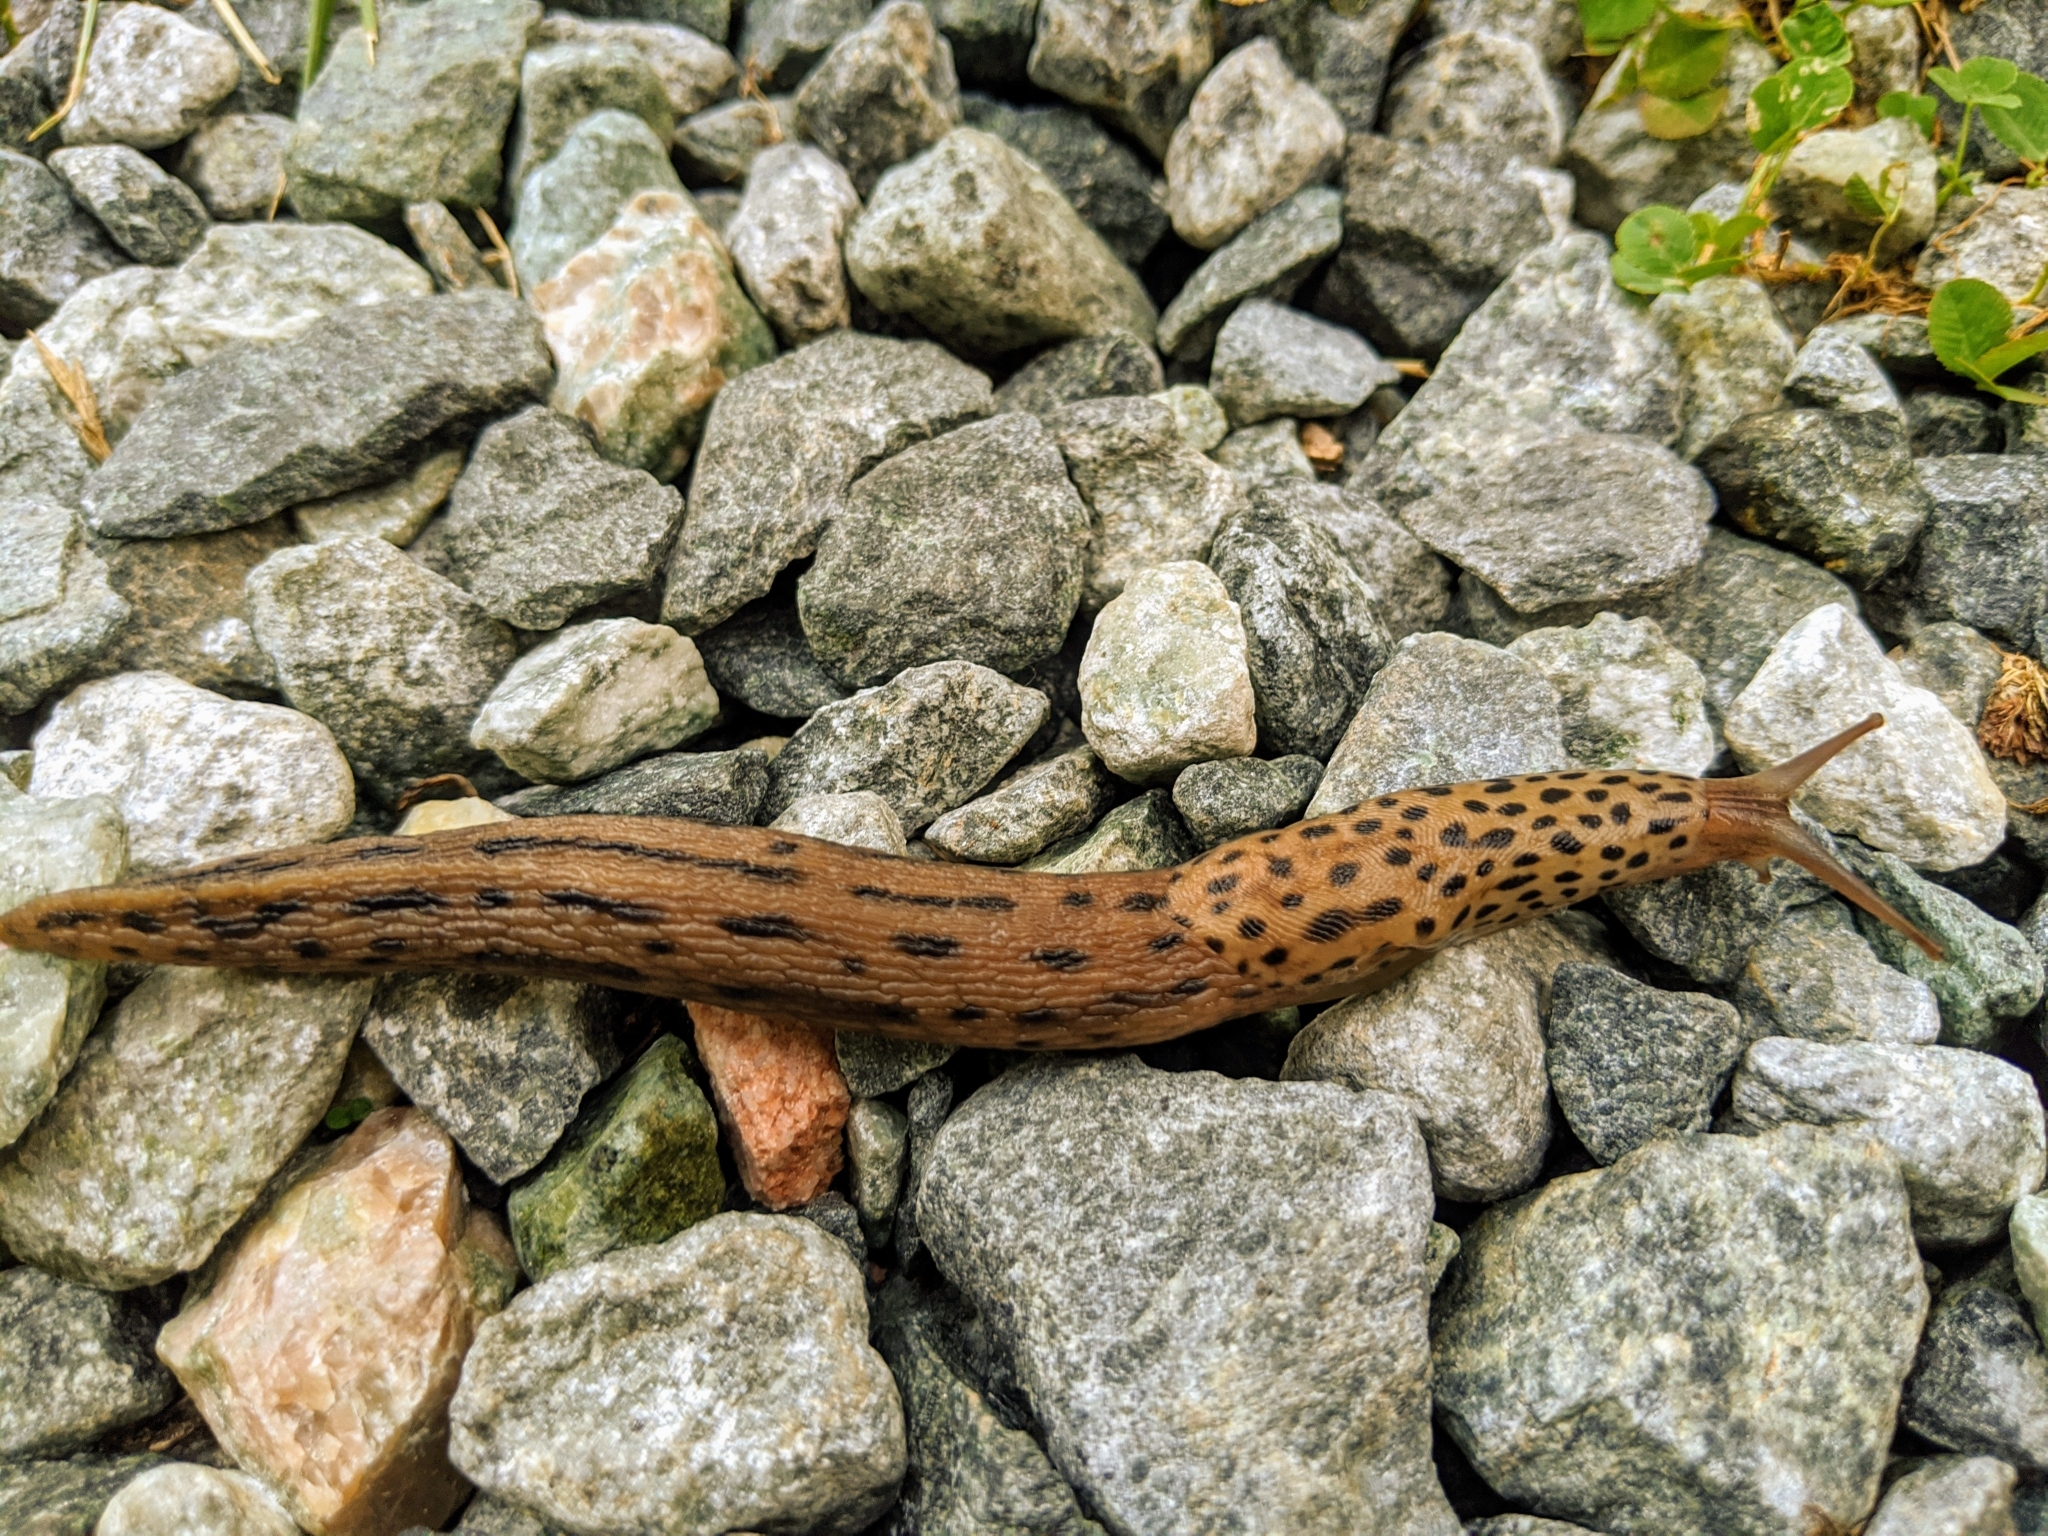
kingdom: Animalia
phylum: Mollusca
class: Gastropoda
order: Stylommatophora
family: Limacidae
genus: Limax
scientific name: Limax maximus
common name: Great grey slug
